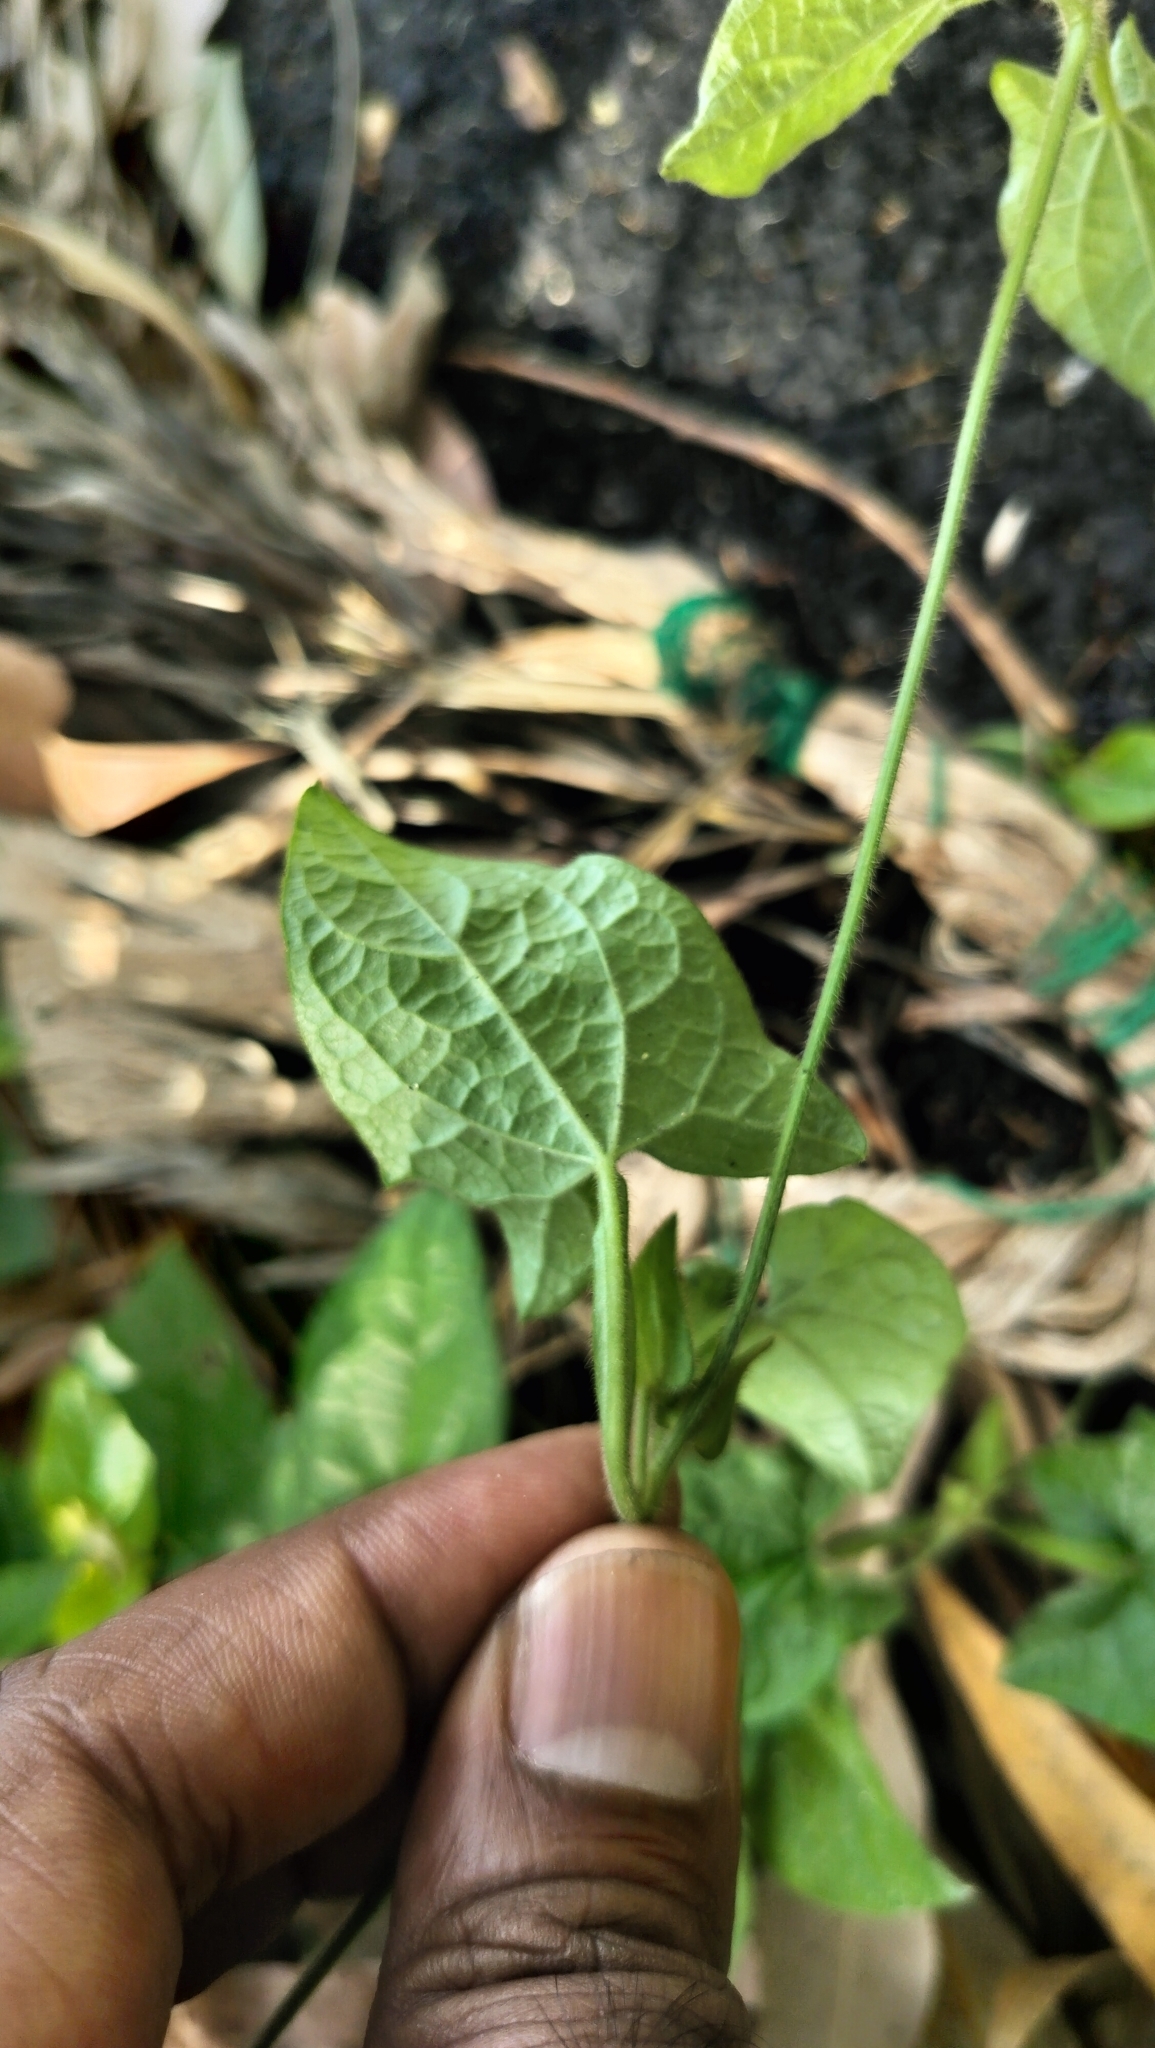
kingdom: Plantae
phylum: Tracheophyta
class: Magnoliopsida
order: Lamiales
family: Acanthaceae
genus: Thunbergia
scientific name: Thunbergia alata
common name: Blackeyed susan vine
